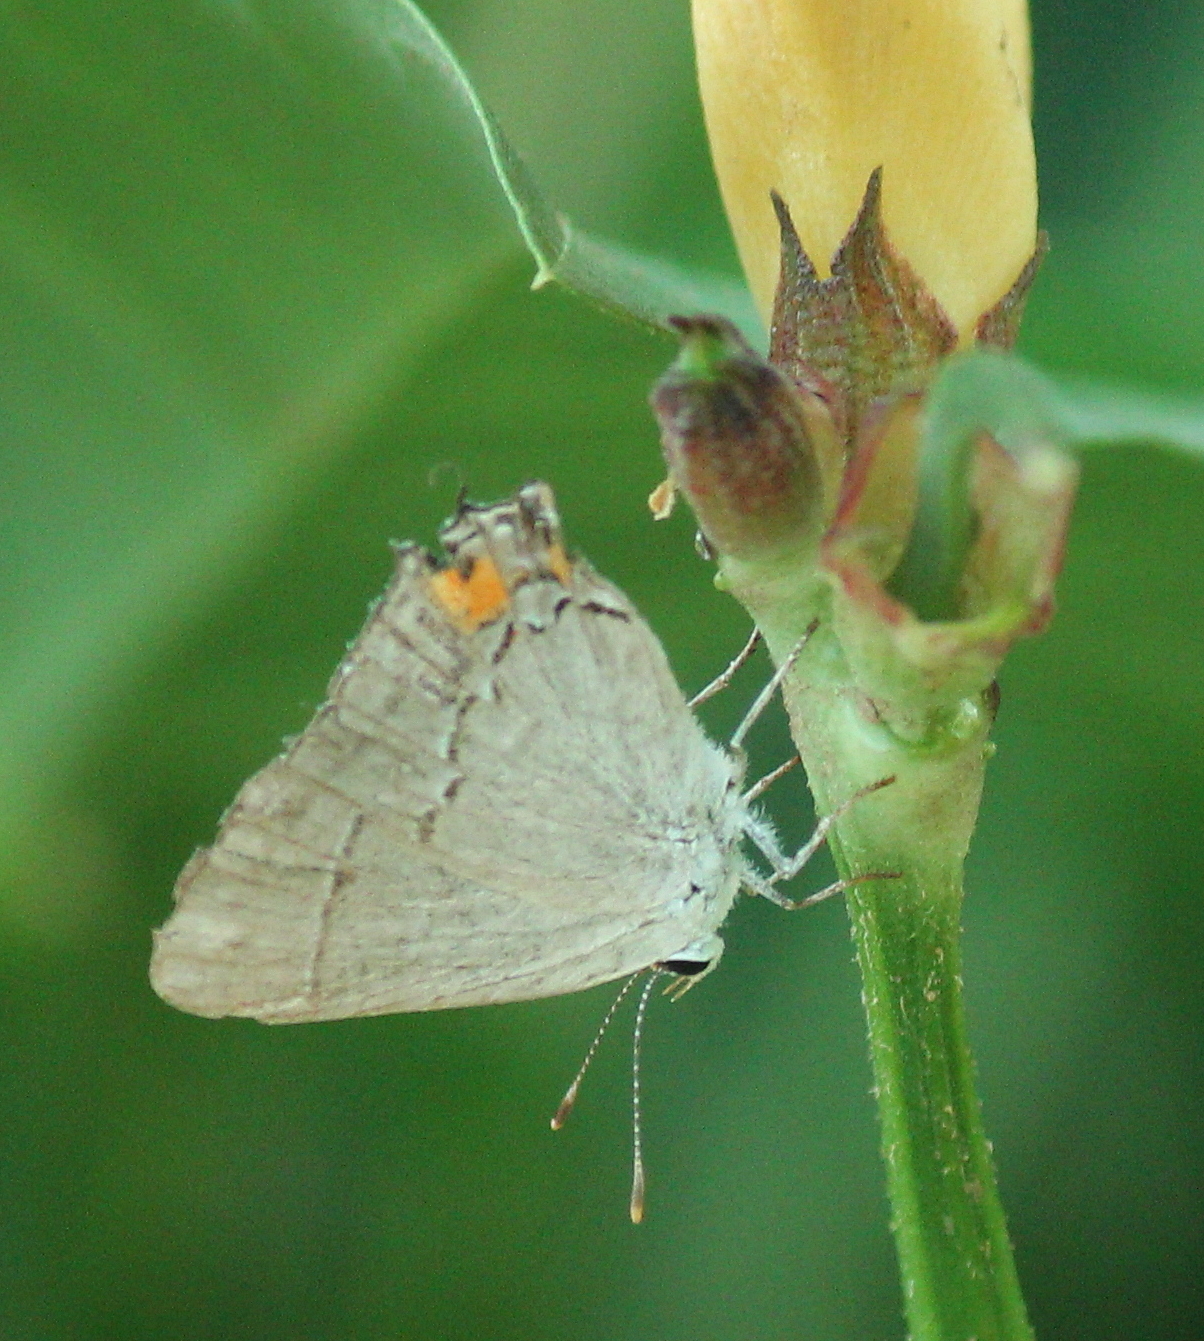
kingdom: Animalia
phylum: Arthropoda
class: Insecta
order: Lepidoptera
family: Lycaenidae
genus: Strymon
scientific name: Strymon melinus
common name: Gray hairstreak
